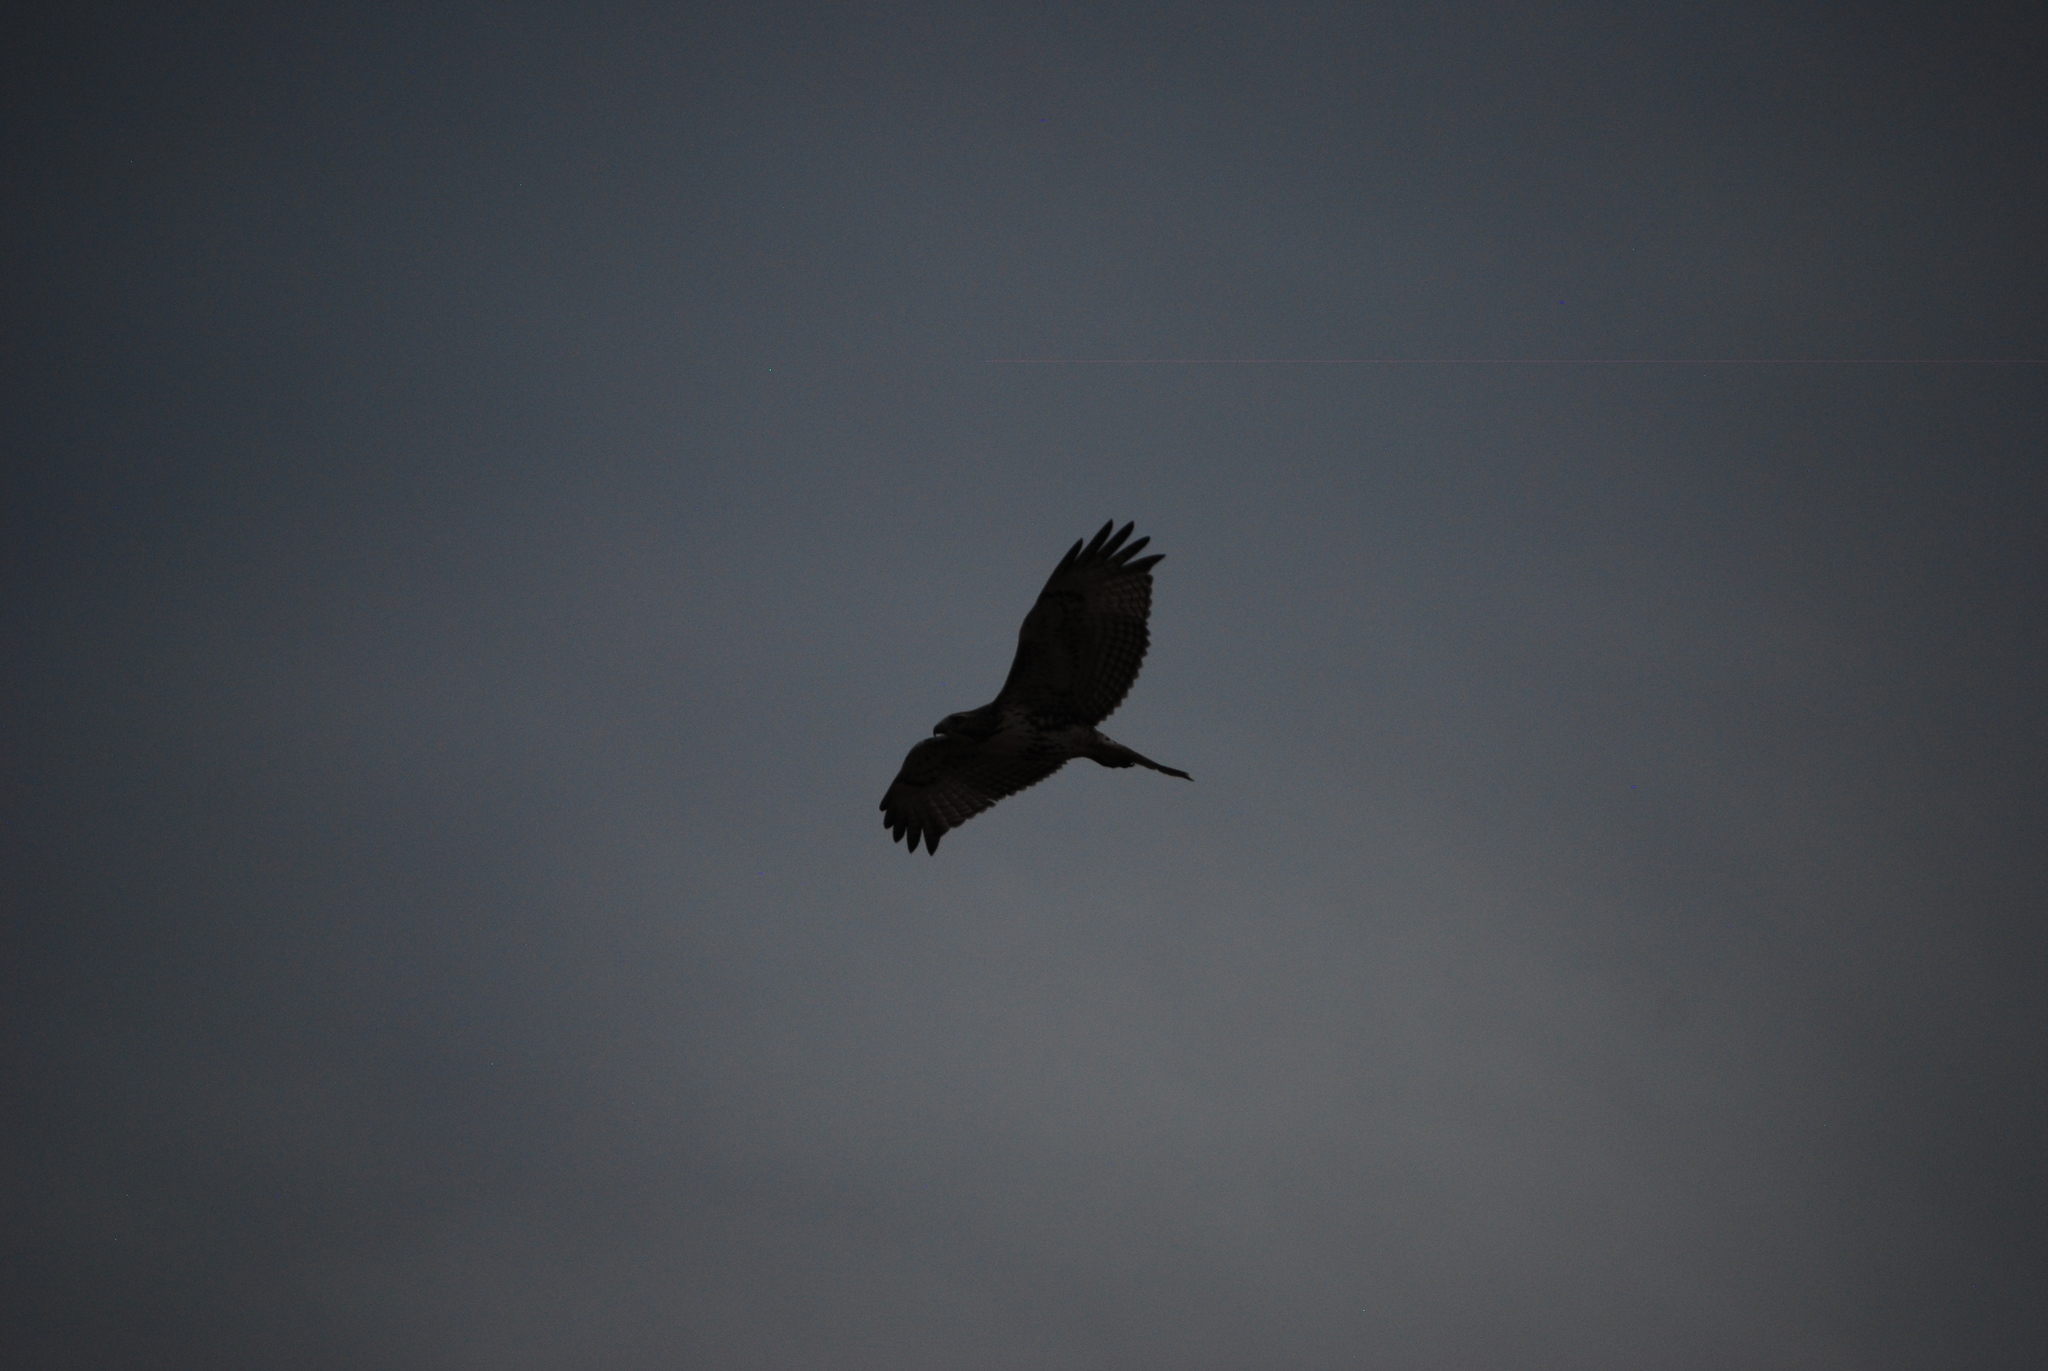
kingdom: Animalia
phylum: Chordata
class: Aves
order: Accipitriformes
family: Accipitridae
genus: Buteo
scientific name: Buteo jamaicensis
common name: Red-tailed hawk
